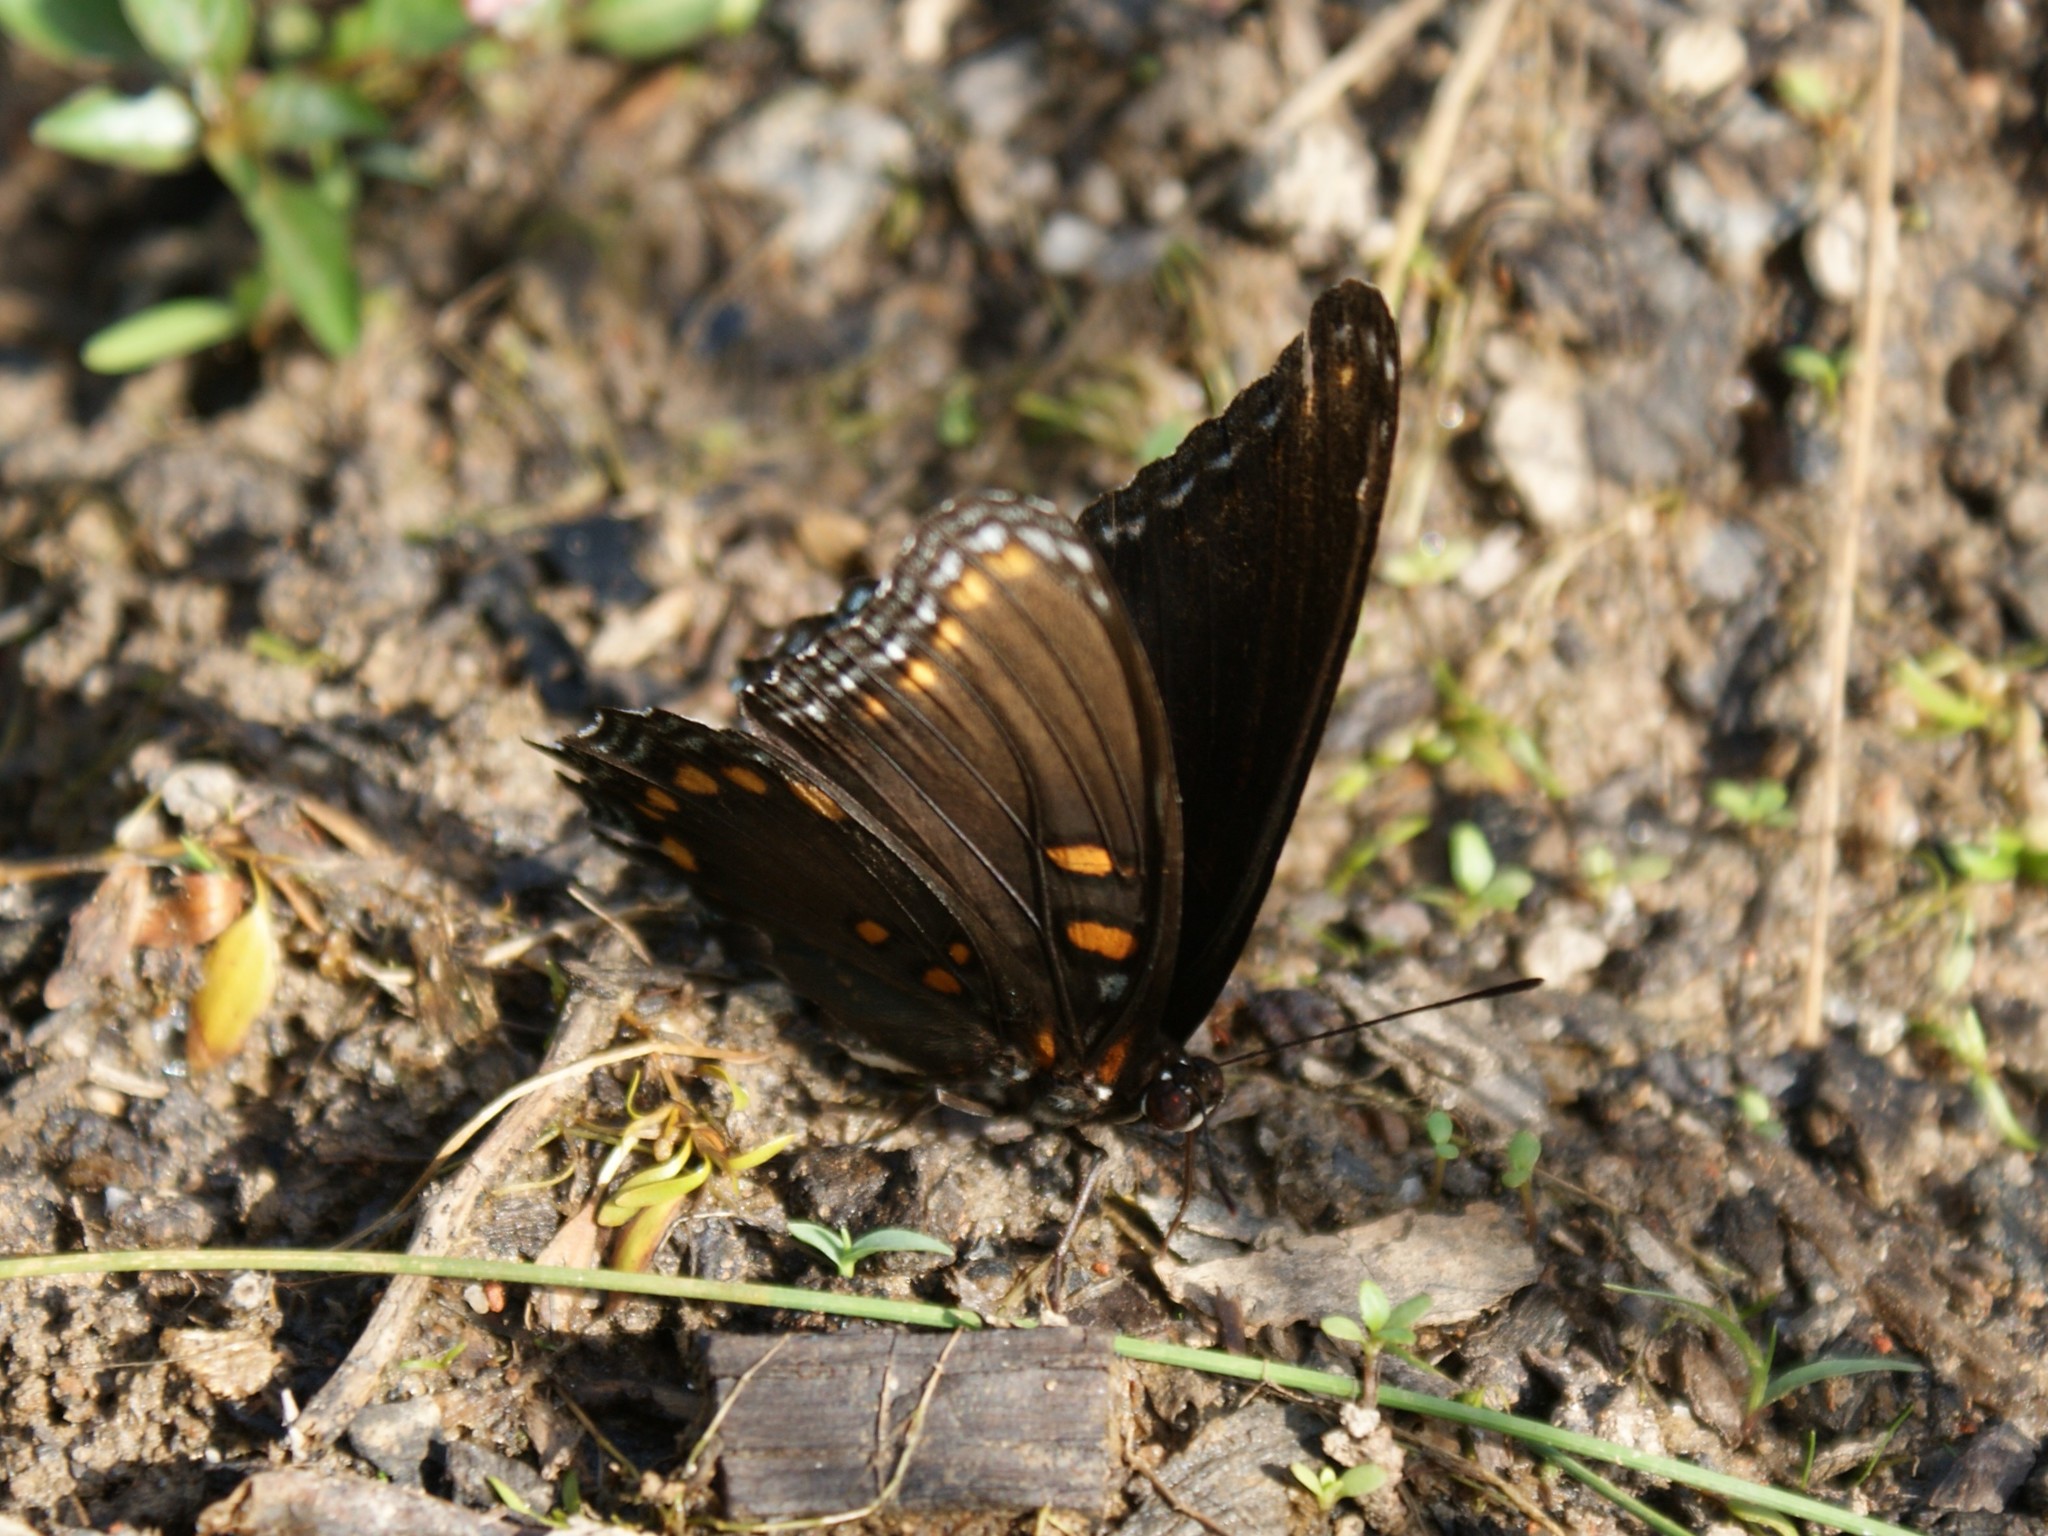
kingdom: Animalia
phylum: Arthropoda
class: Insecta
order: Lepidoptera
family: Nymphalidae
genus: Limenitis
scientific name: Limenitis astyanax
